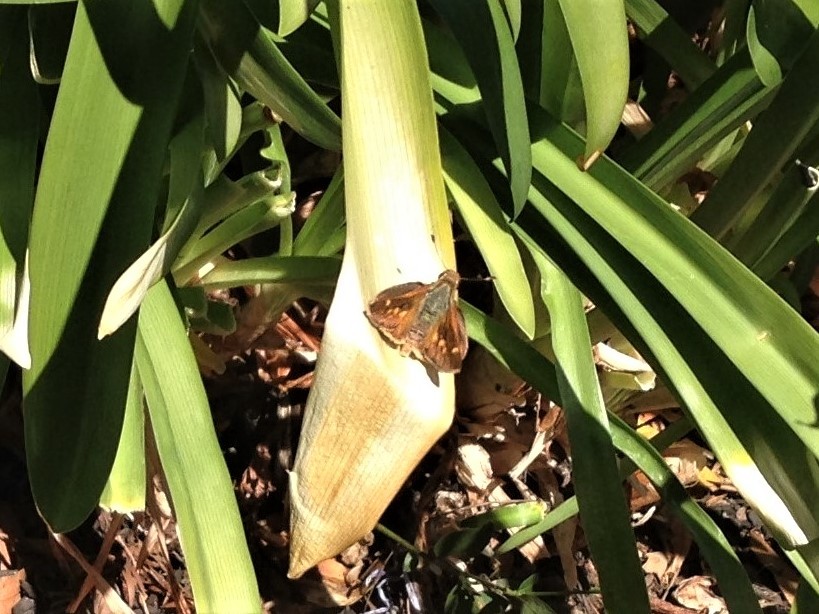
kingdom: Animalia
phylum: Arthropoda
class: Insecta
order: Lepidoptera
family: Hesperiidae
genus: Lon
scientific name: Lon melane
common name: Umber skipper
